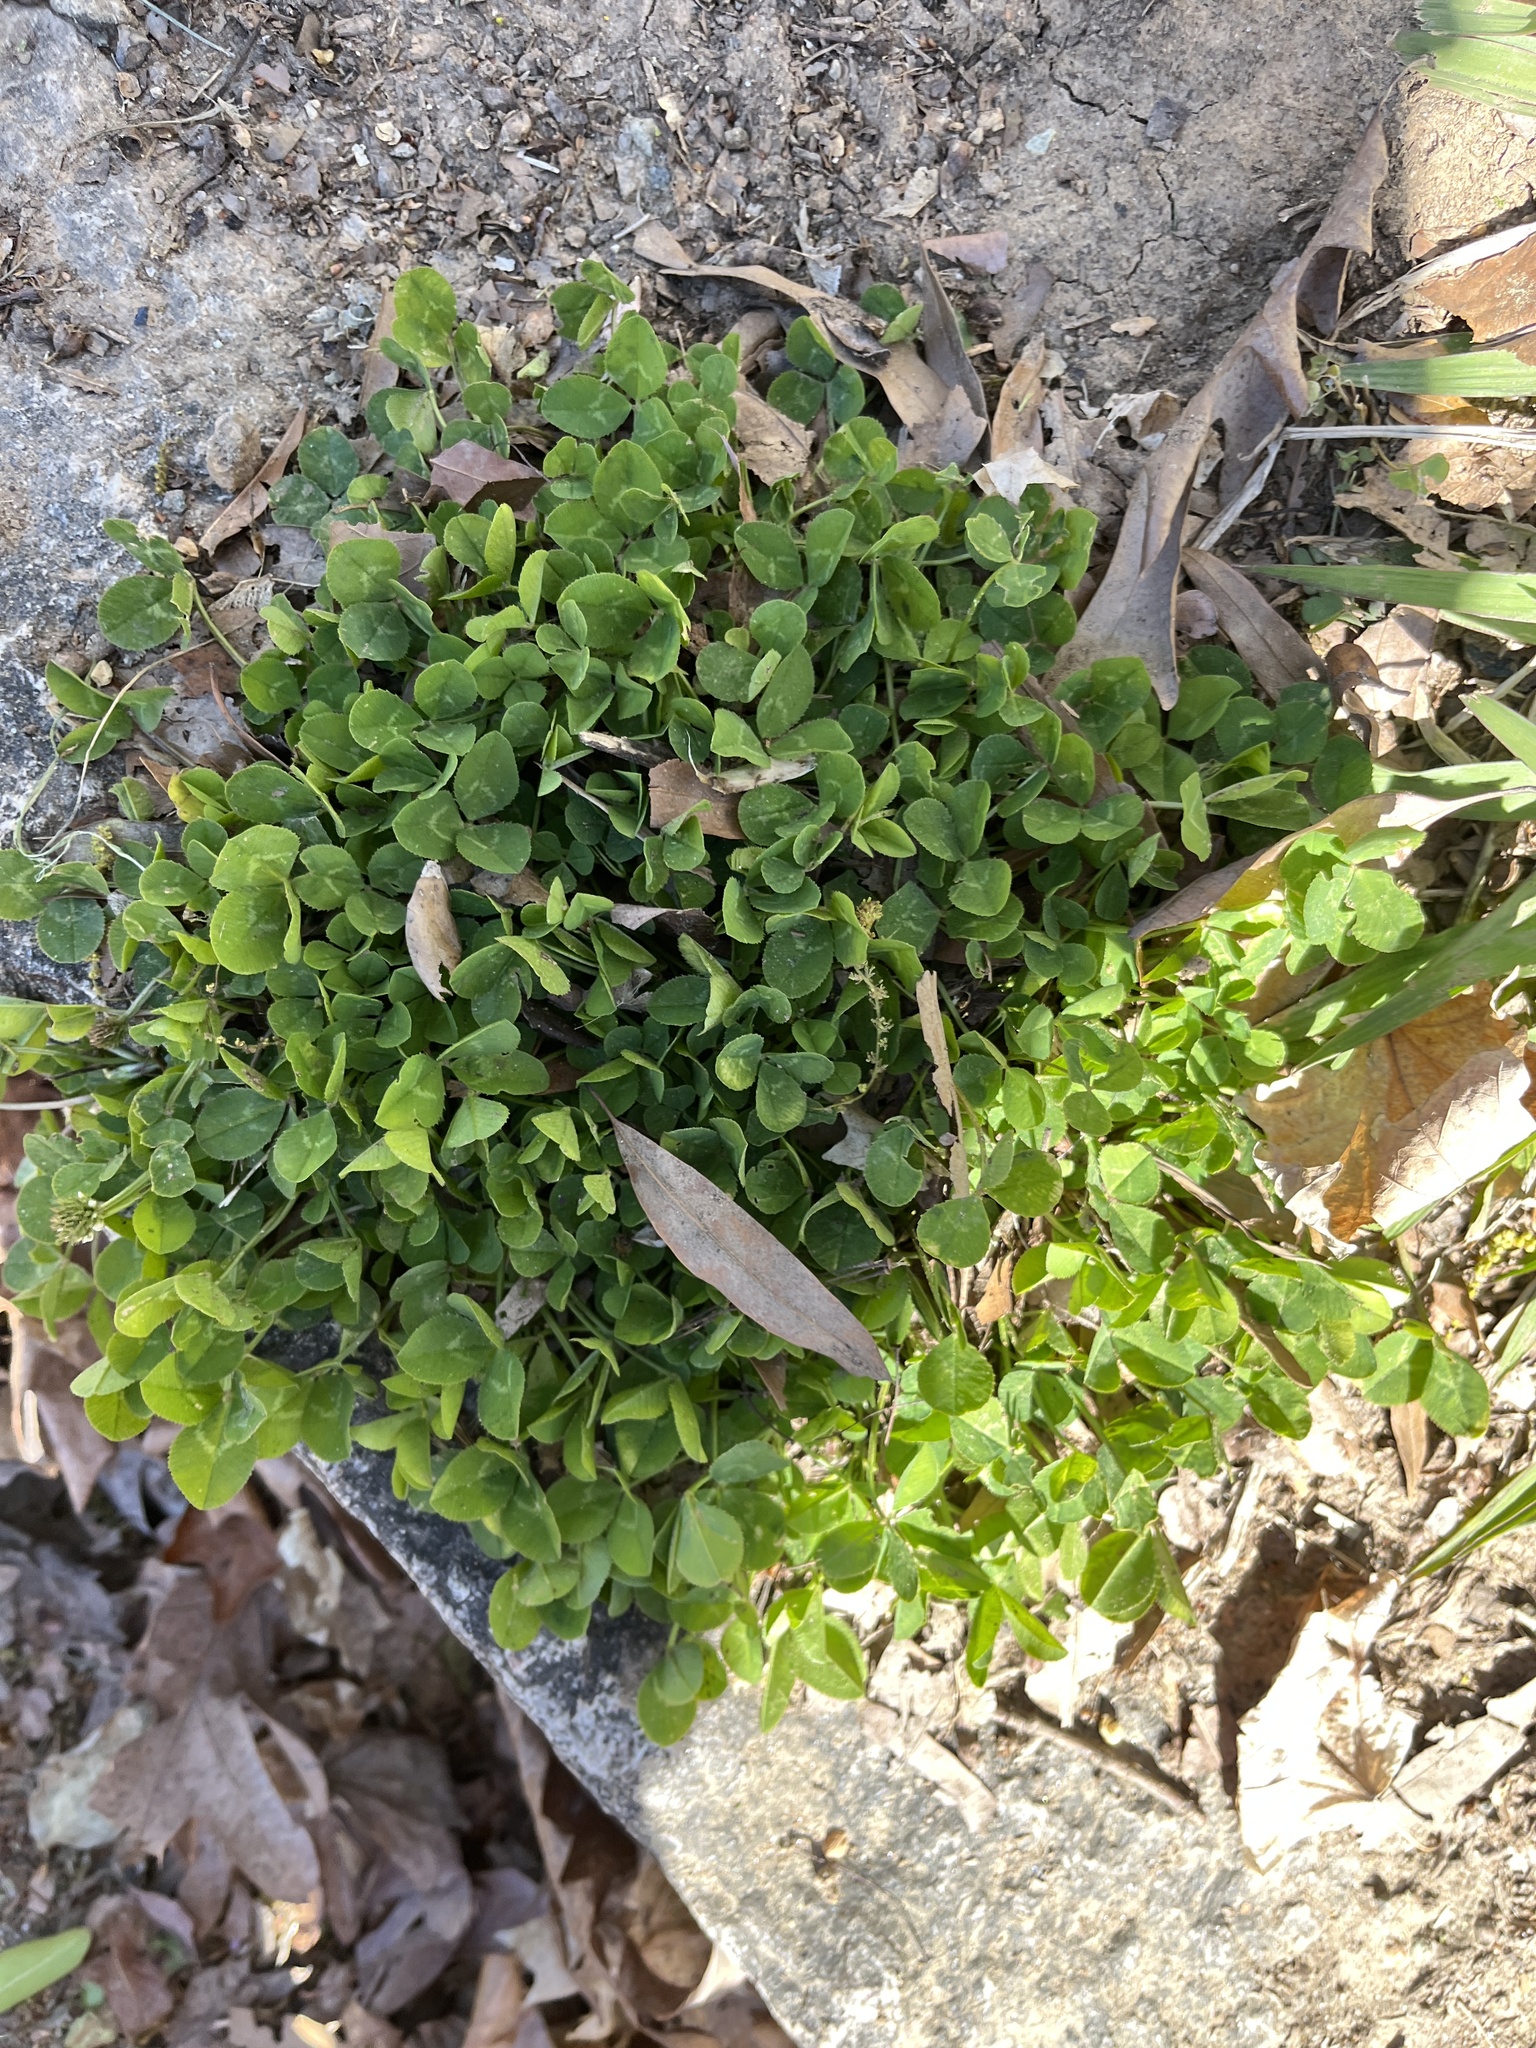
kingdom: Plantae
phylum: Tracheophyta
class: Magnoliopsida
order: Fabales
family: Fabaceae
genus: Trifolium
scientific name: Trifolium repens
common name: White clover
